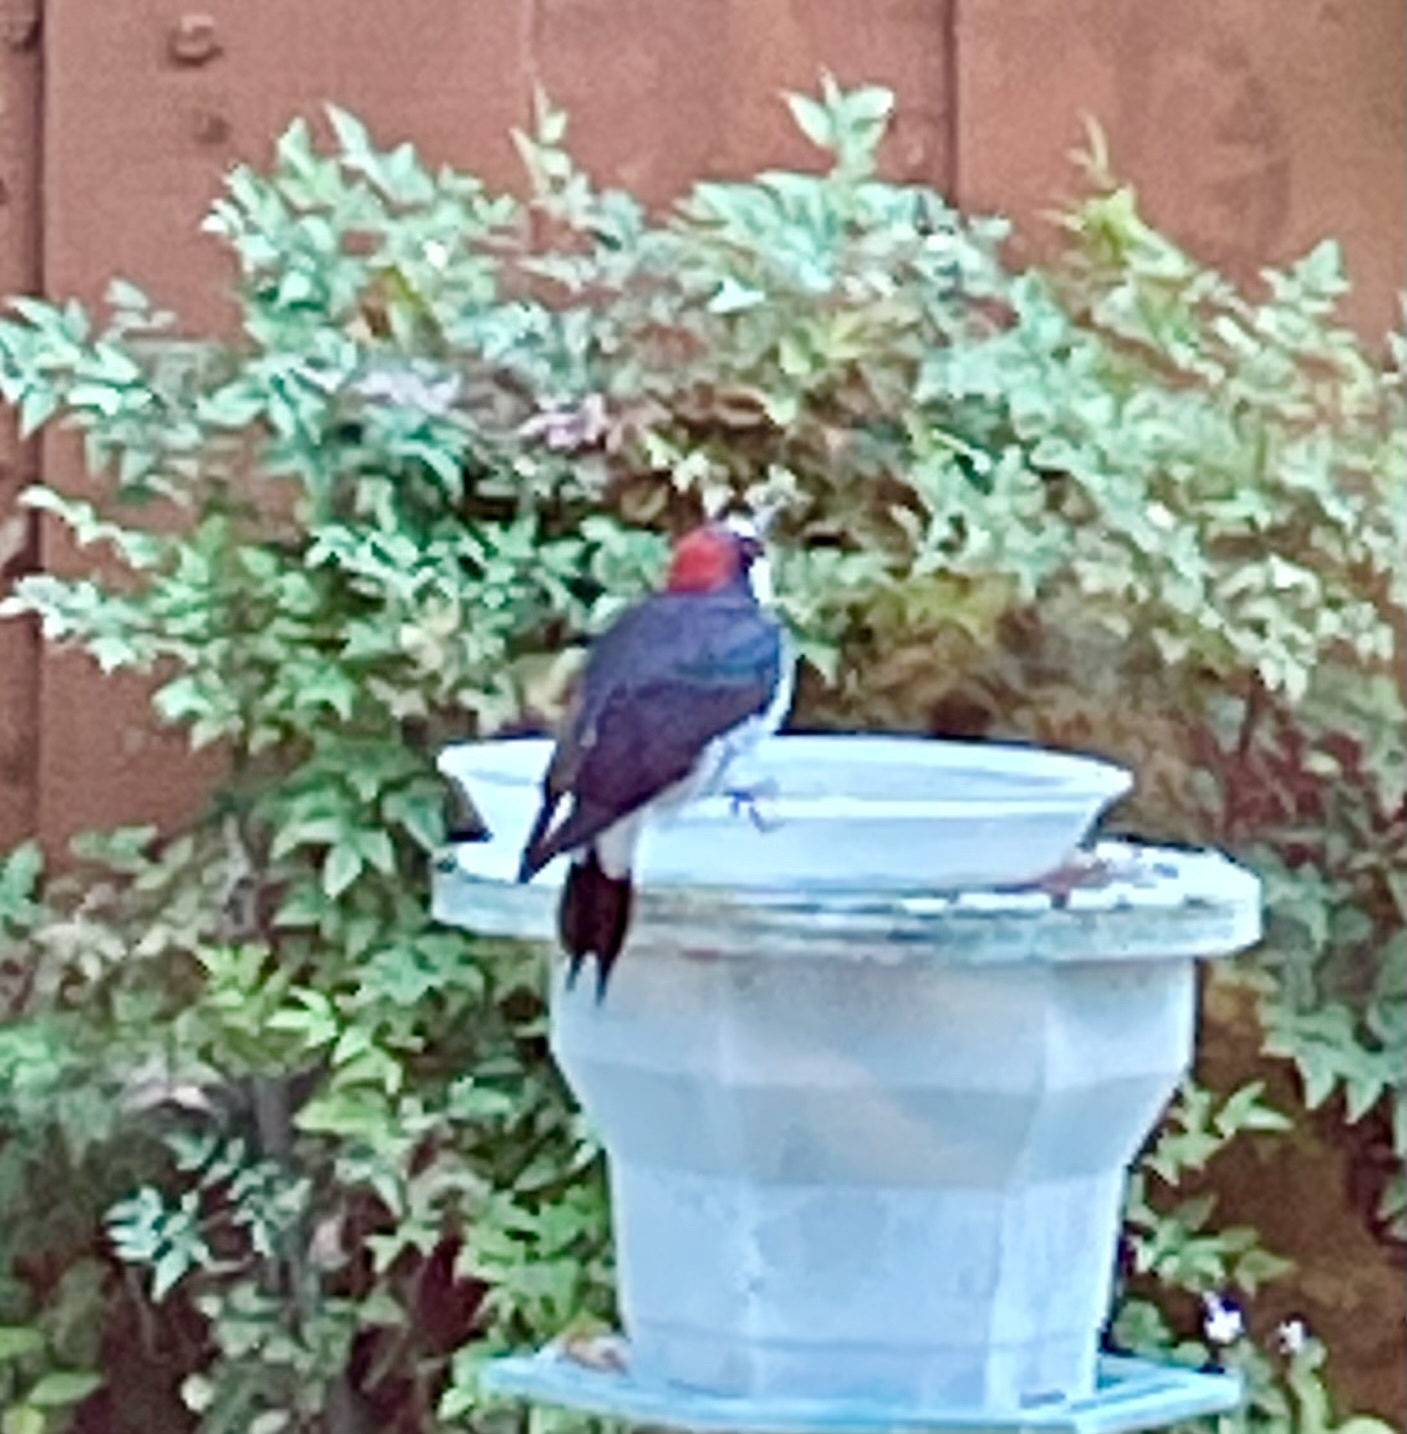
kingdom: Animalia
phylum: Chordata
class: Aves
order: Piciformes
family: Picidae
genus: Melanerpes
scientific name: Melanerpes formicivorus
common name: Acorn woodpecker
